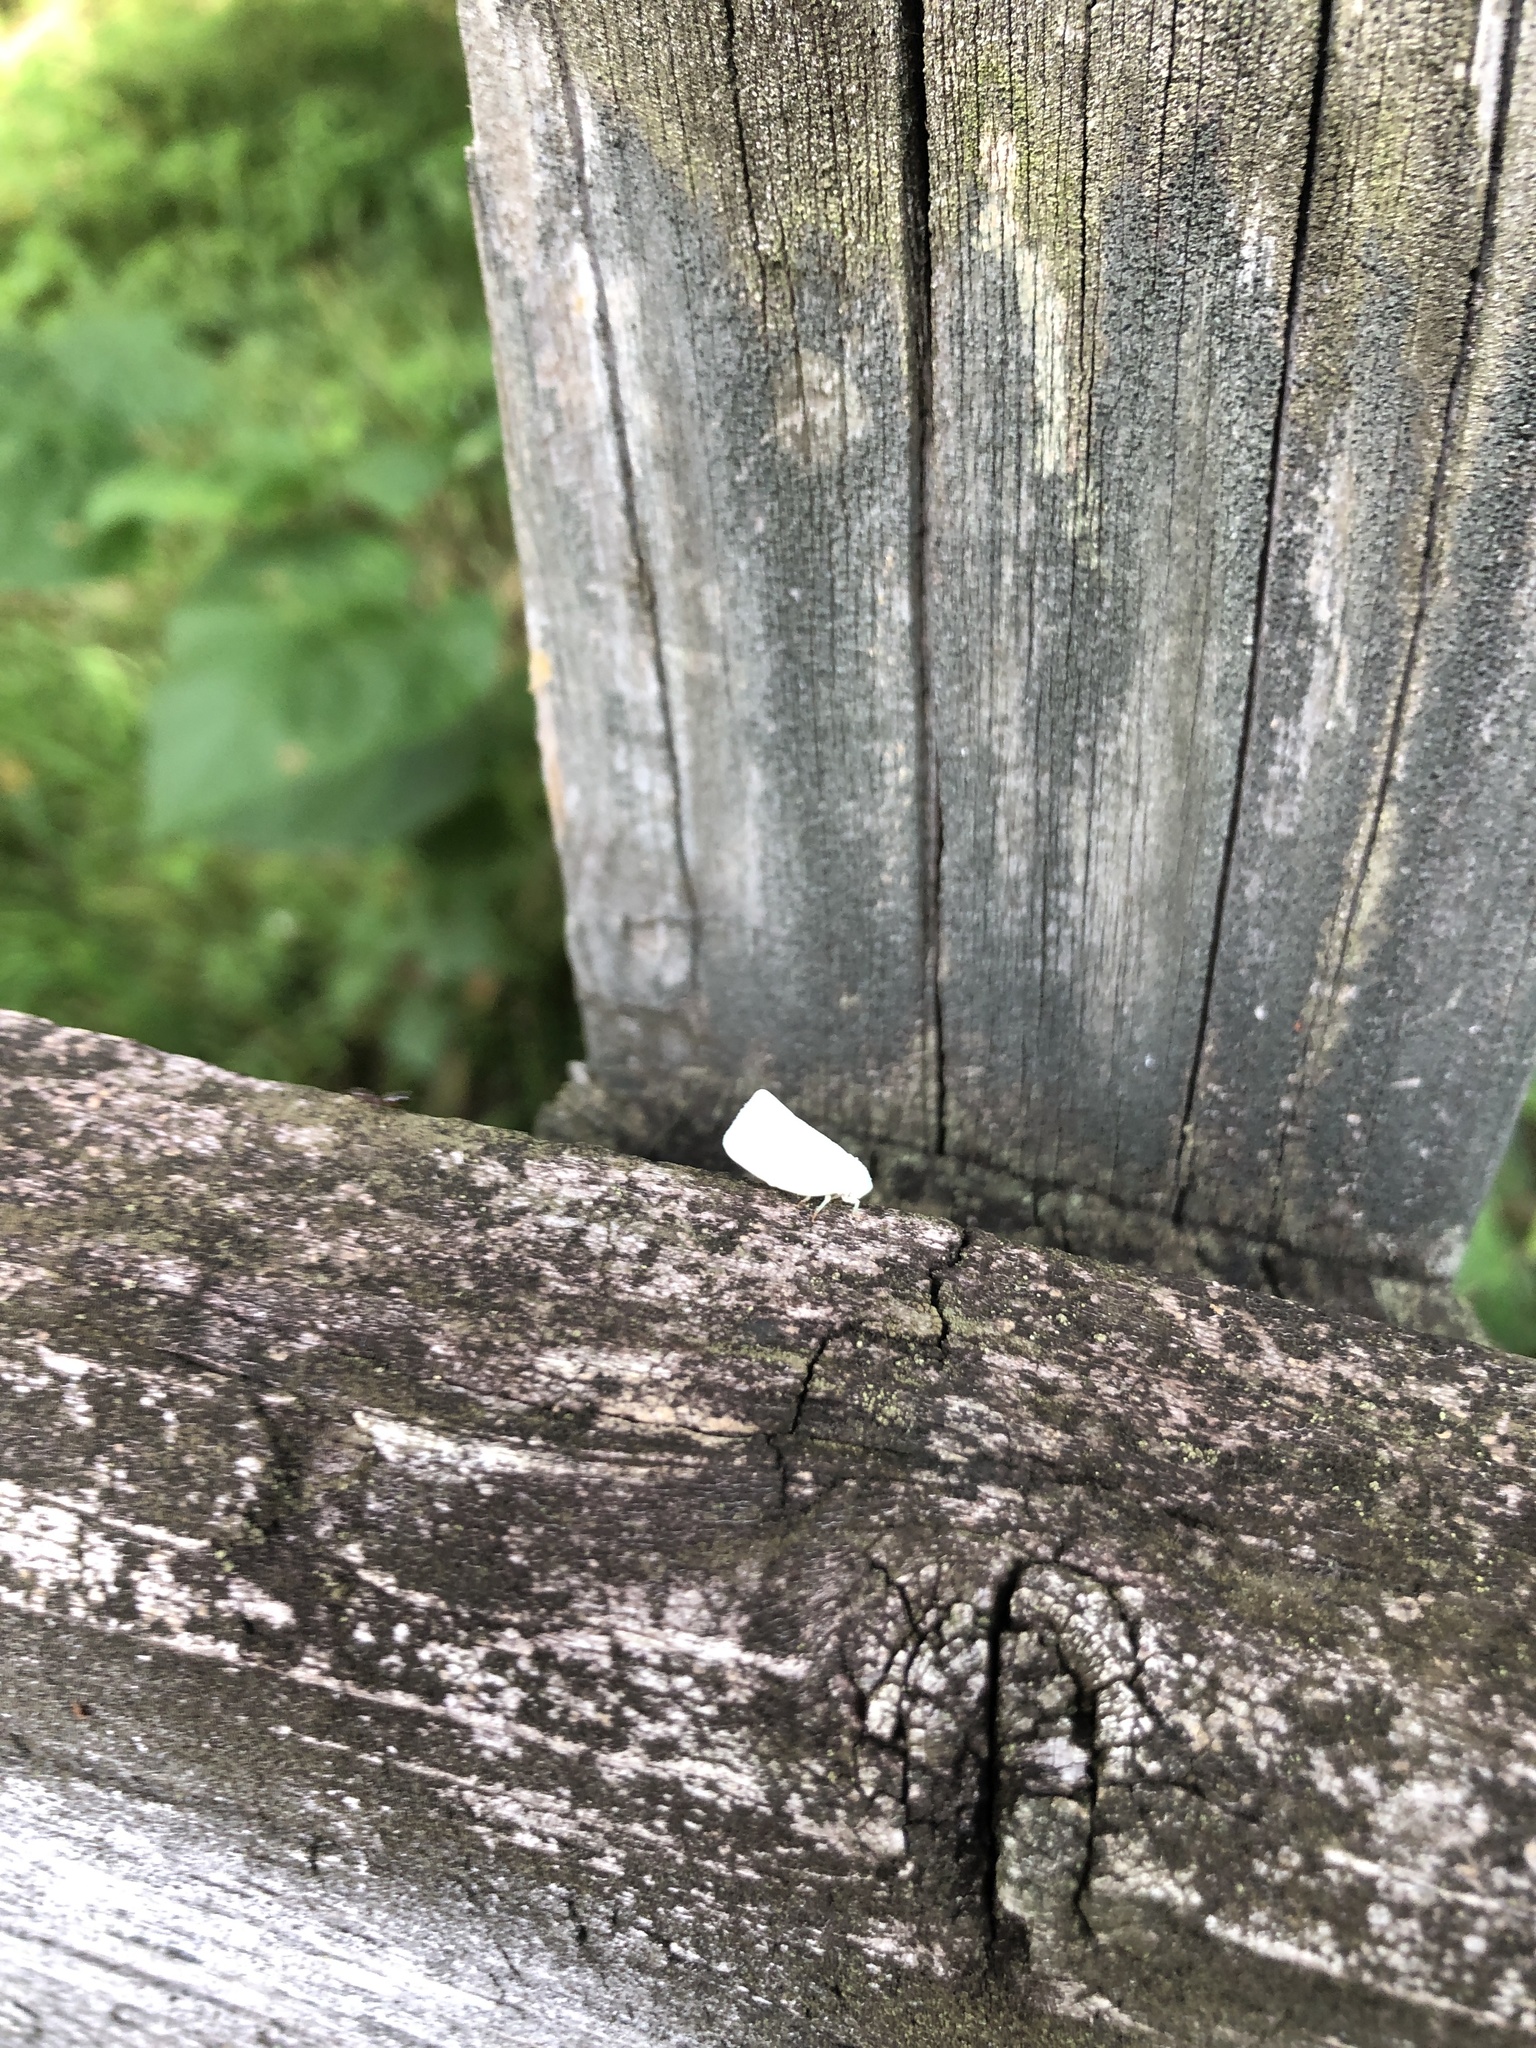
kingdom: Animalia
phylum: Arthropoda
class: Insecta
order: Hemiptera
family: Flatidae
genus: Flatormenis
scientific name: Flatormenis proxima
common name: Northern flatid planthopper
